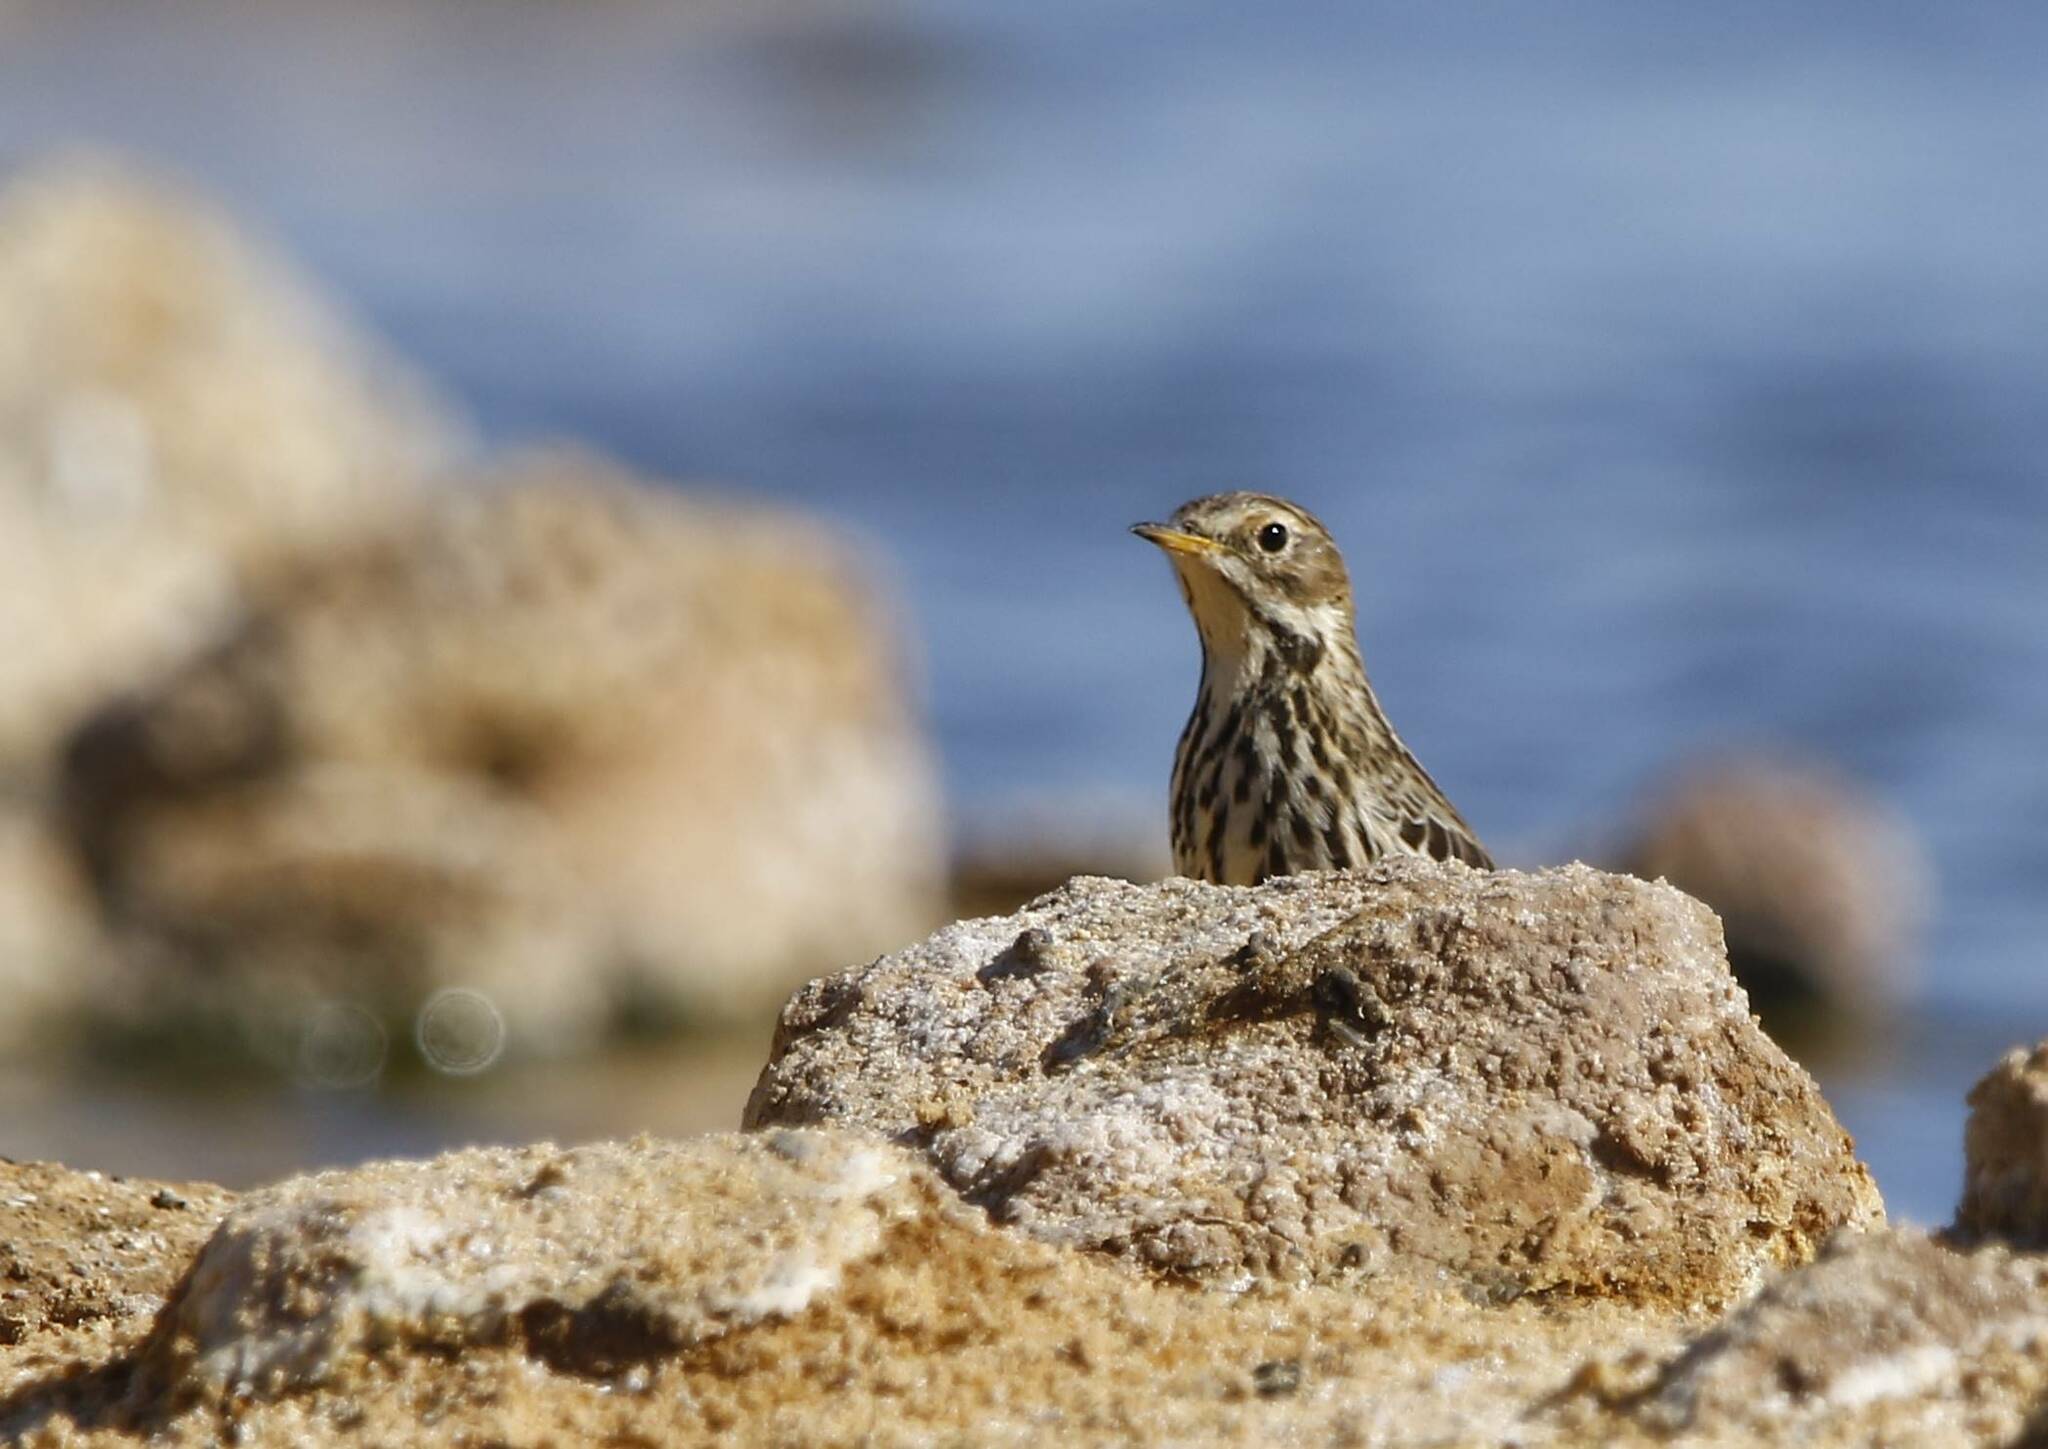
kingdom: Animalia
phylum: Chordata
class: Aves
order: Passeriformes
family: Motacillidae
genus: Anthus
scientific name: Anthus cervinus
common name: Red-throated pipit
